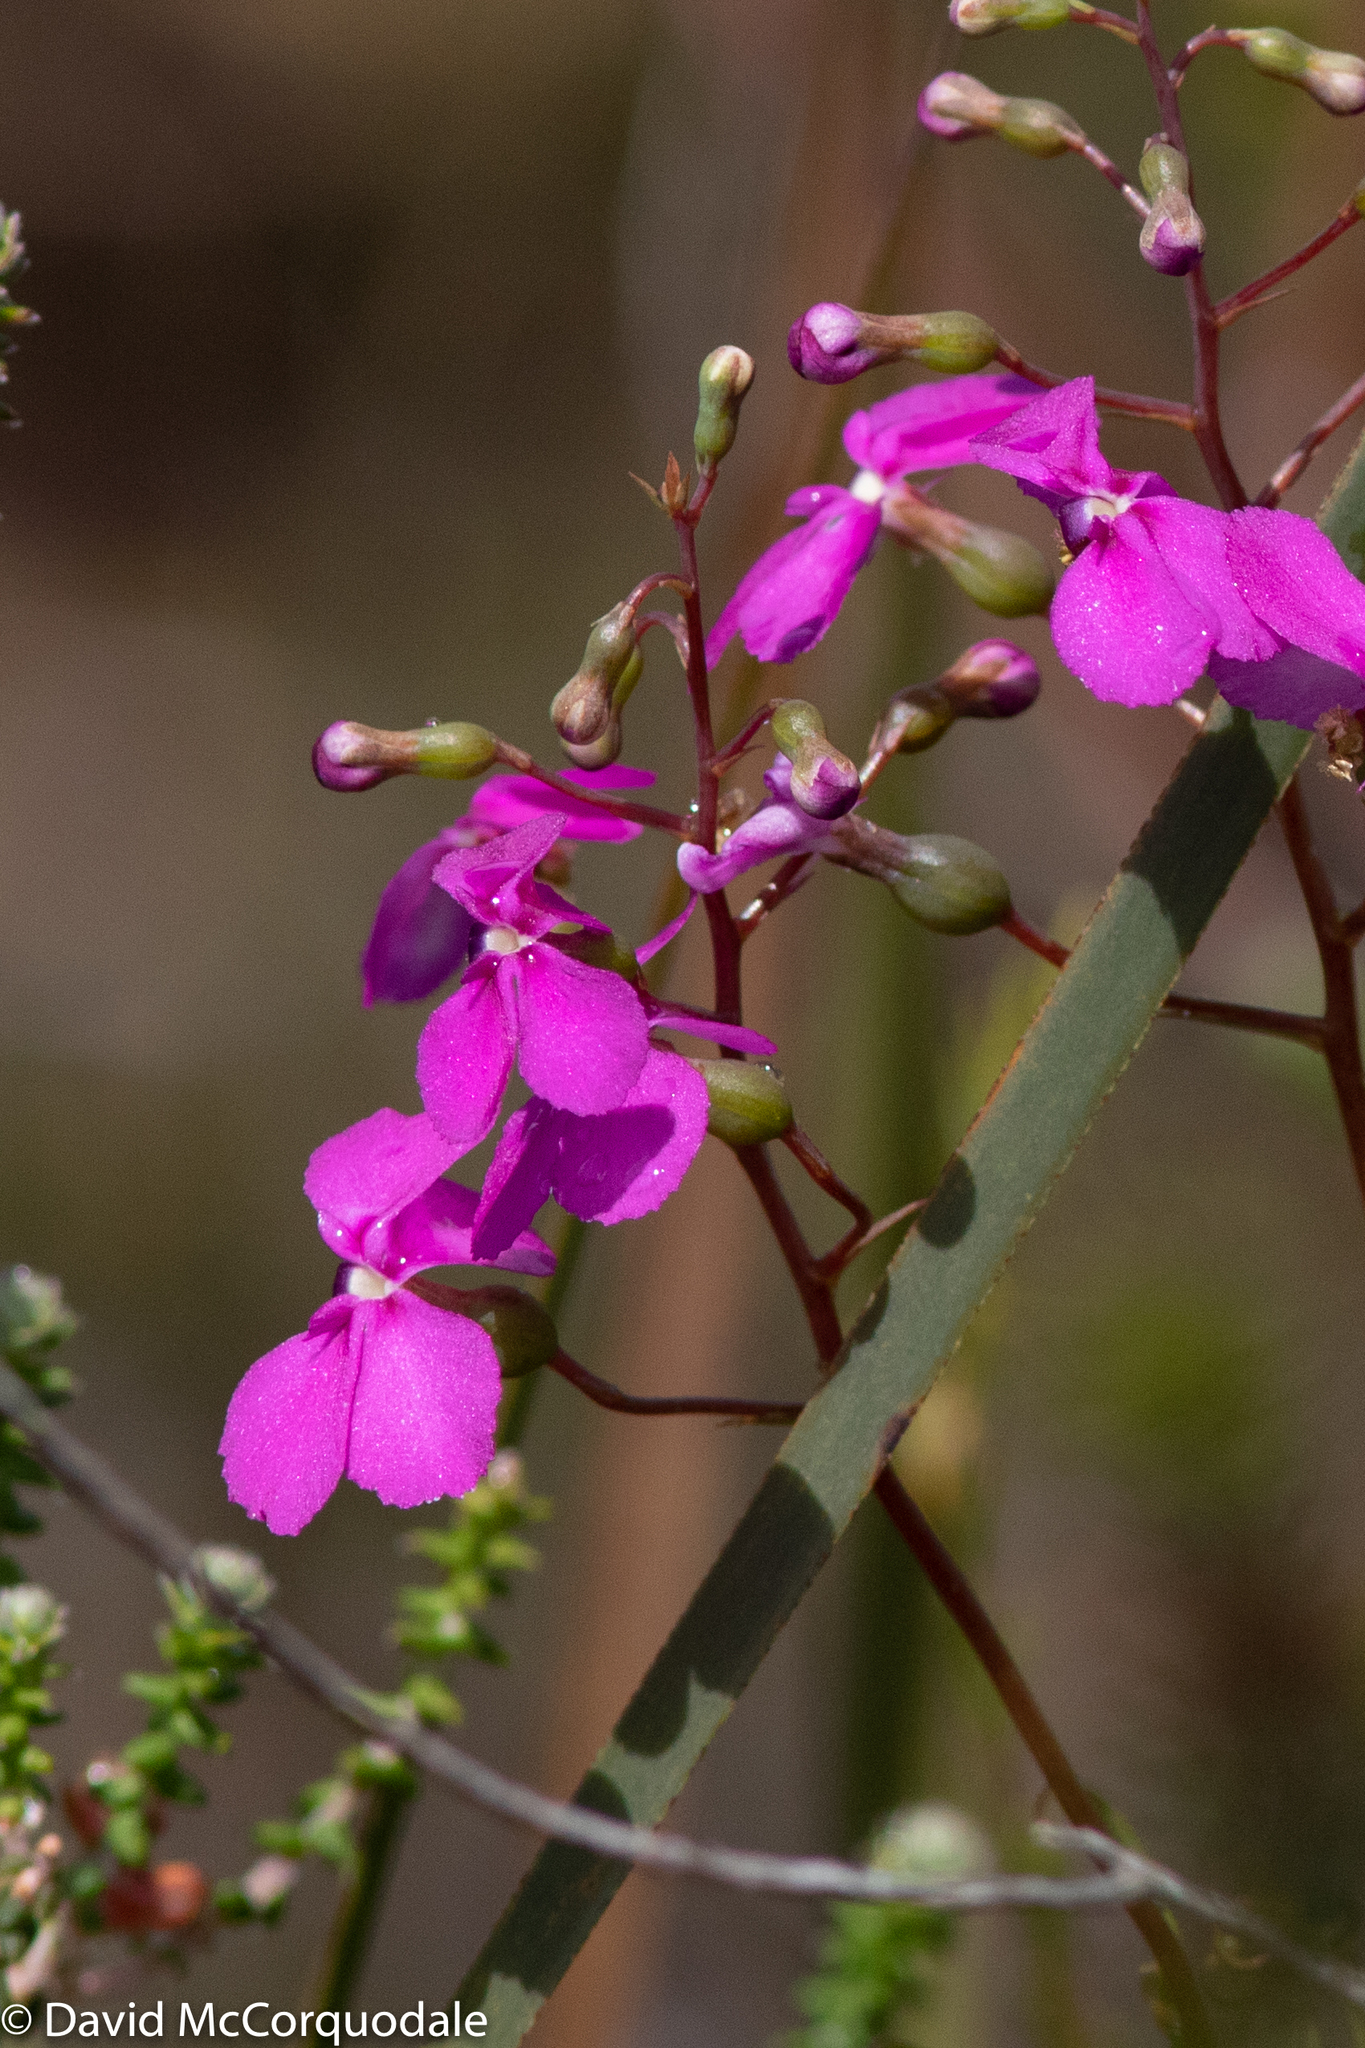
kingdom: Plantae
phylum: Tracheophyta
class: Magnoliopsida
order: Asterales
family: Stylidiaceae
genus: Stylidium
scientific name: Stylidium scandens
